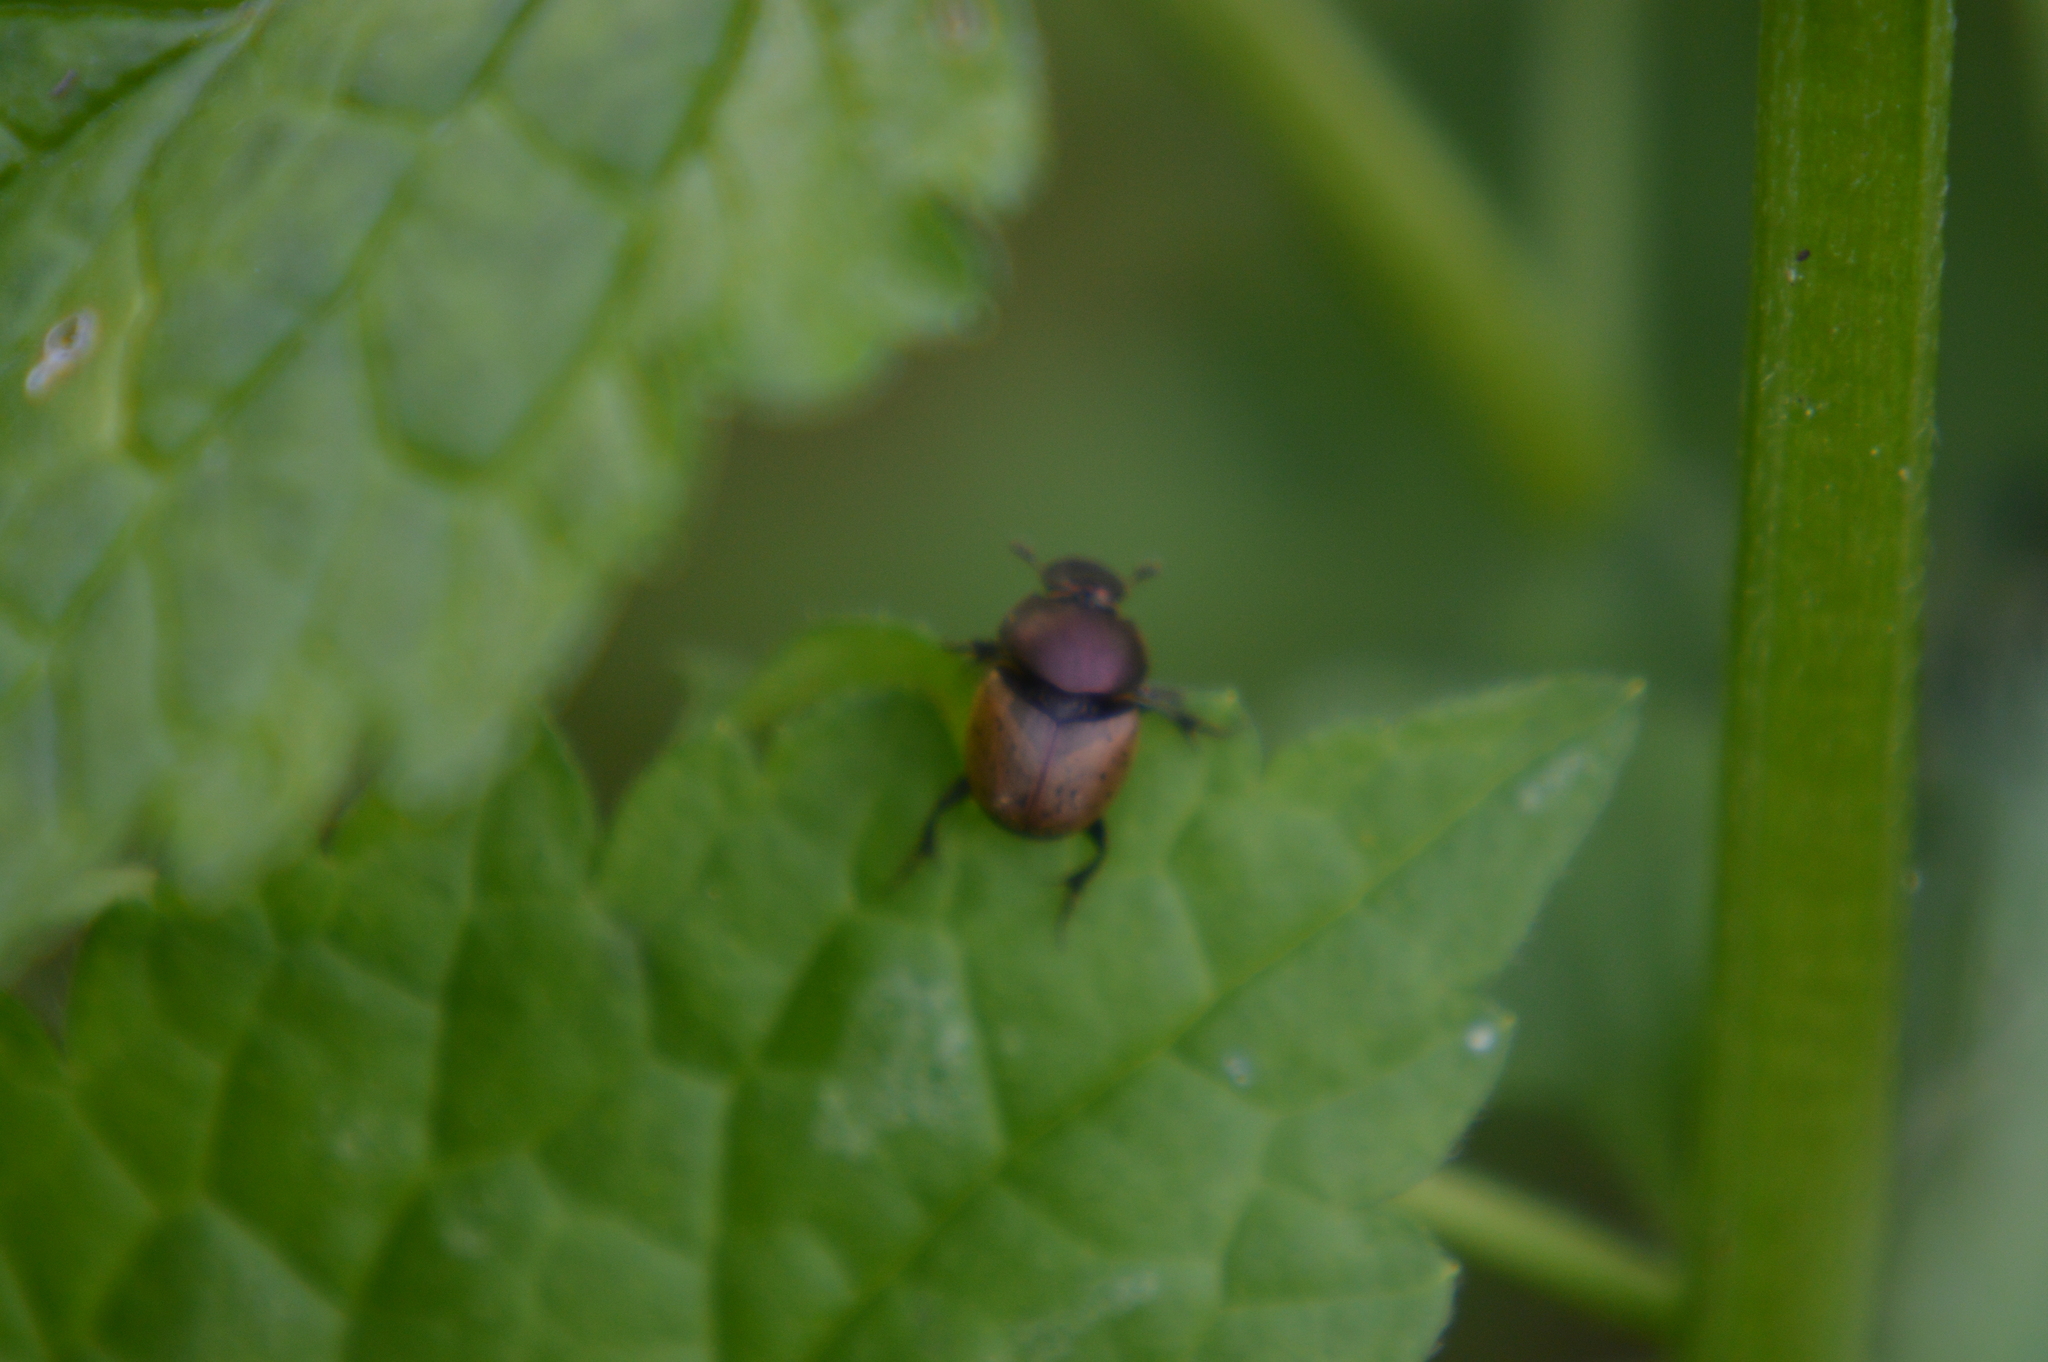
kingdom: Animalia
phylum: Arthropoda
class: Insecta
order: Coleoptera
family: Scarabaeidae
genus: Onthophagus
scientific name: Onthophagus coenobita
